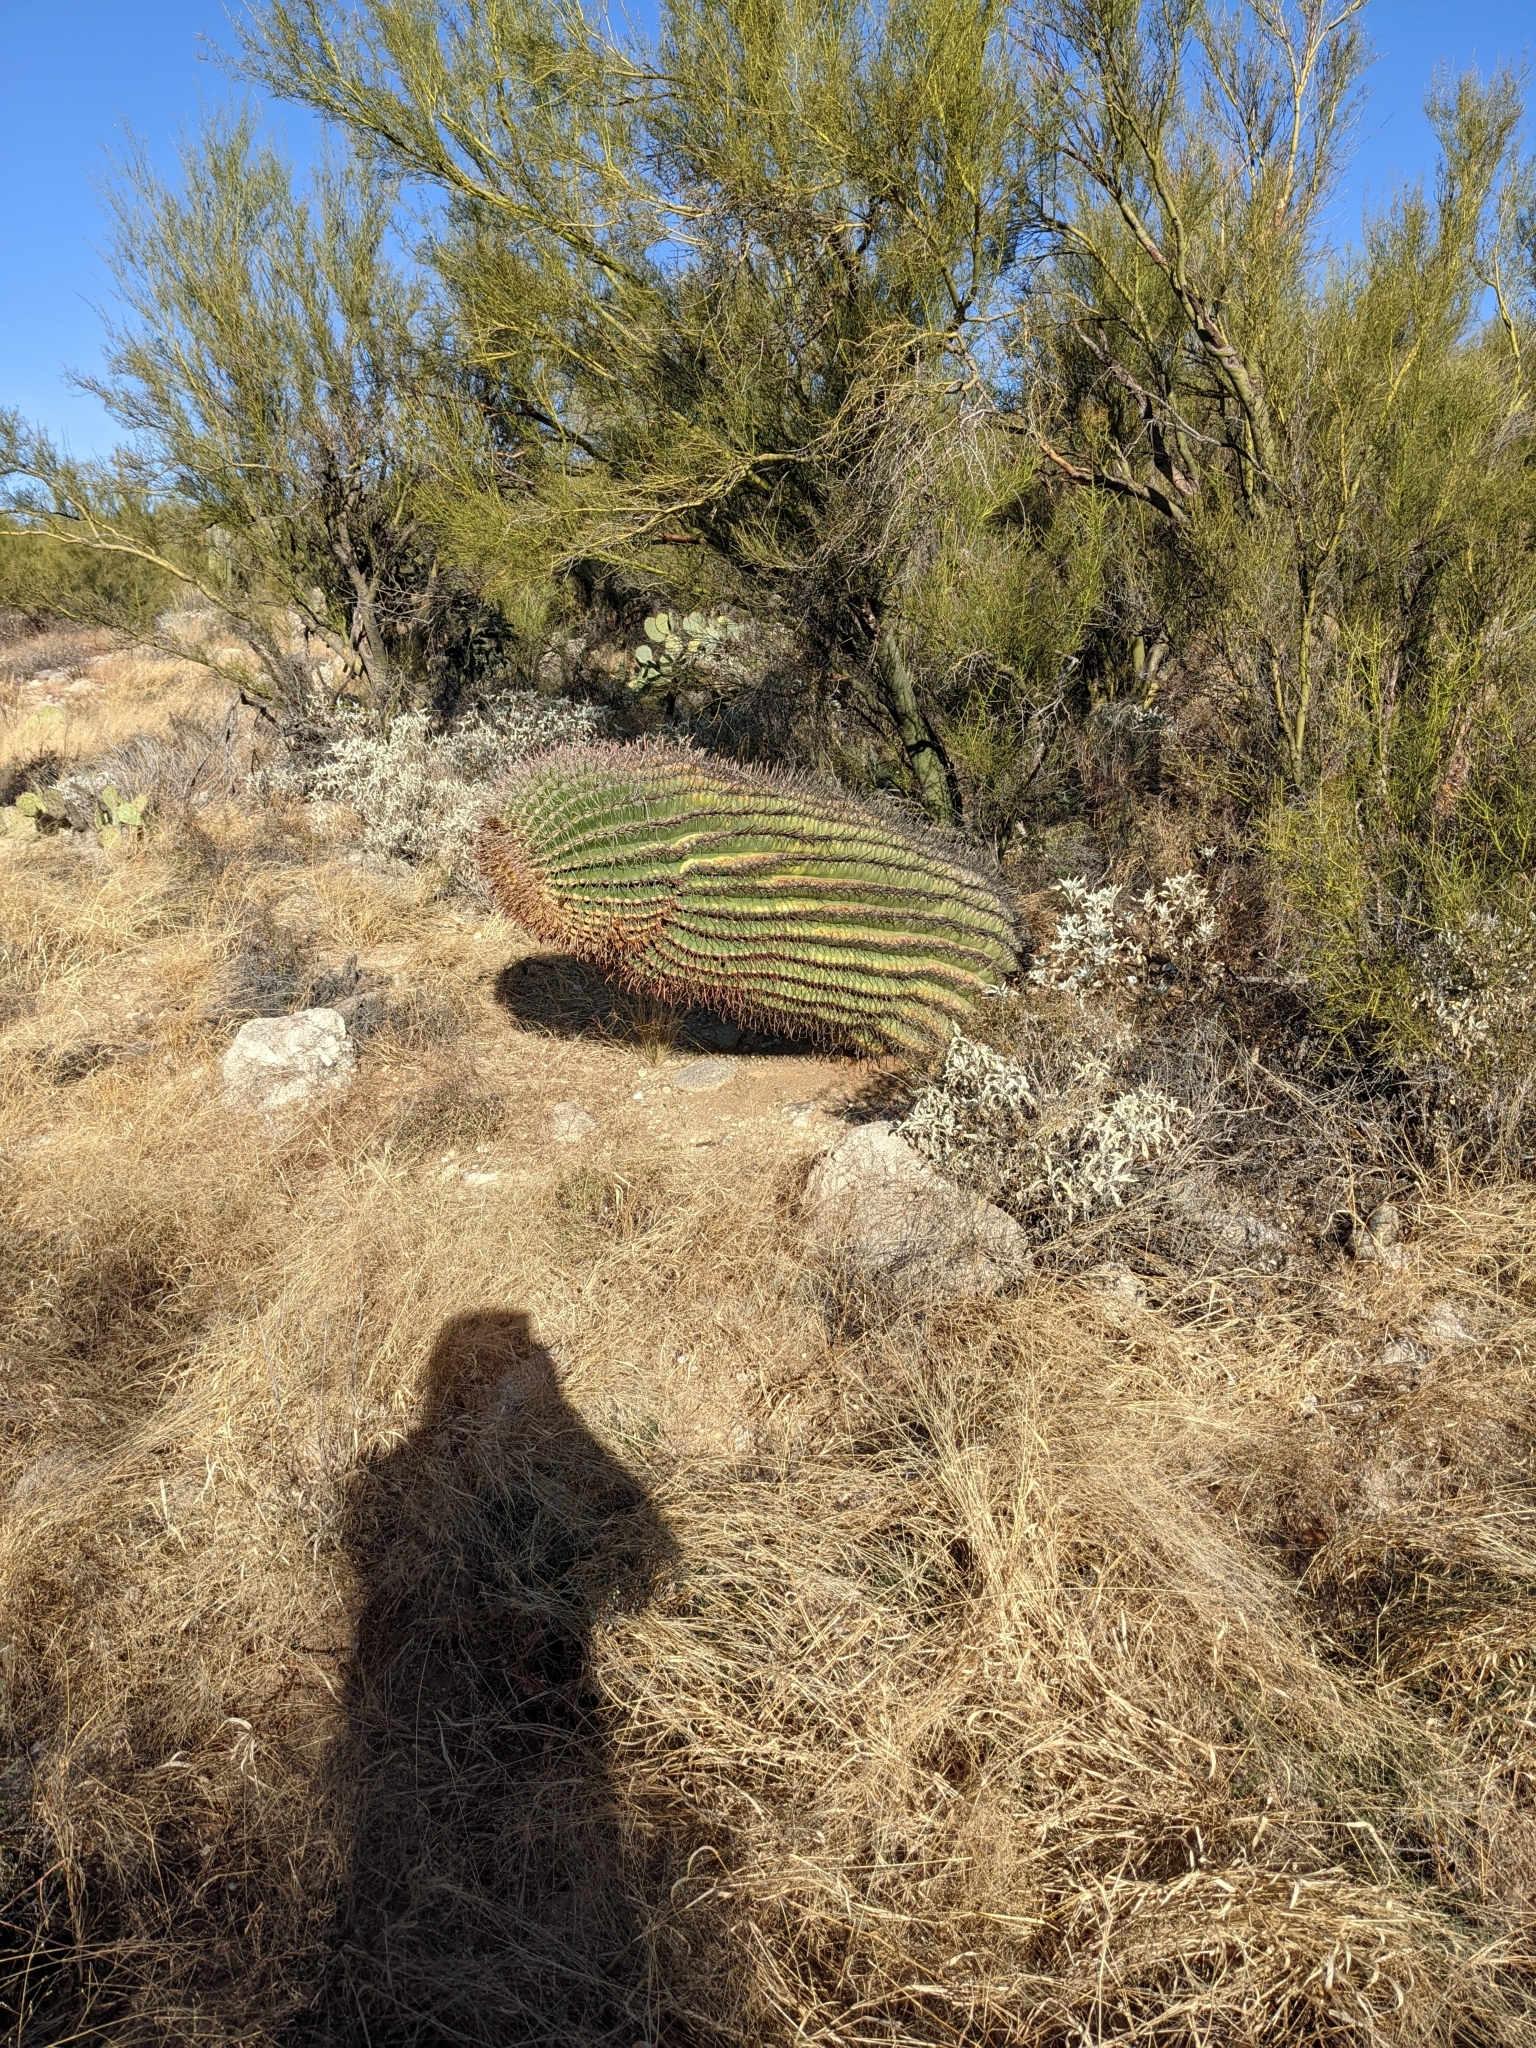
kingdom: Plantae
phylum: Tracheophyta
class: Magnoliopsida
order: Caryophyllales
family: Cactaceae
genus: Ferocactus
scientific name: Ferocactus wislizeni
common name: Candy barrel cactus
